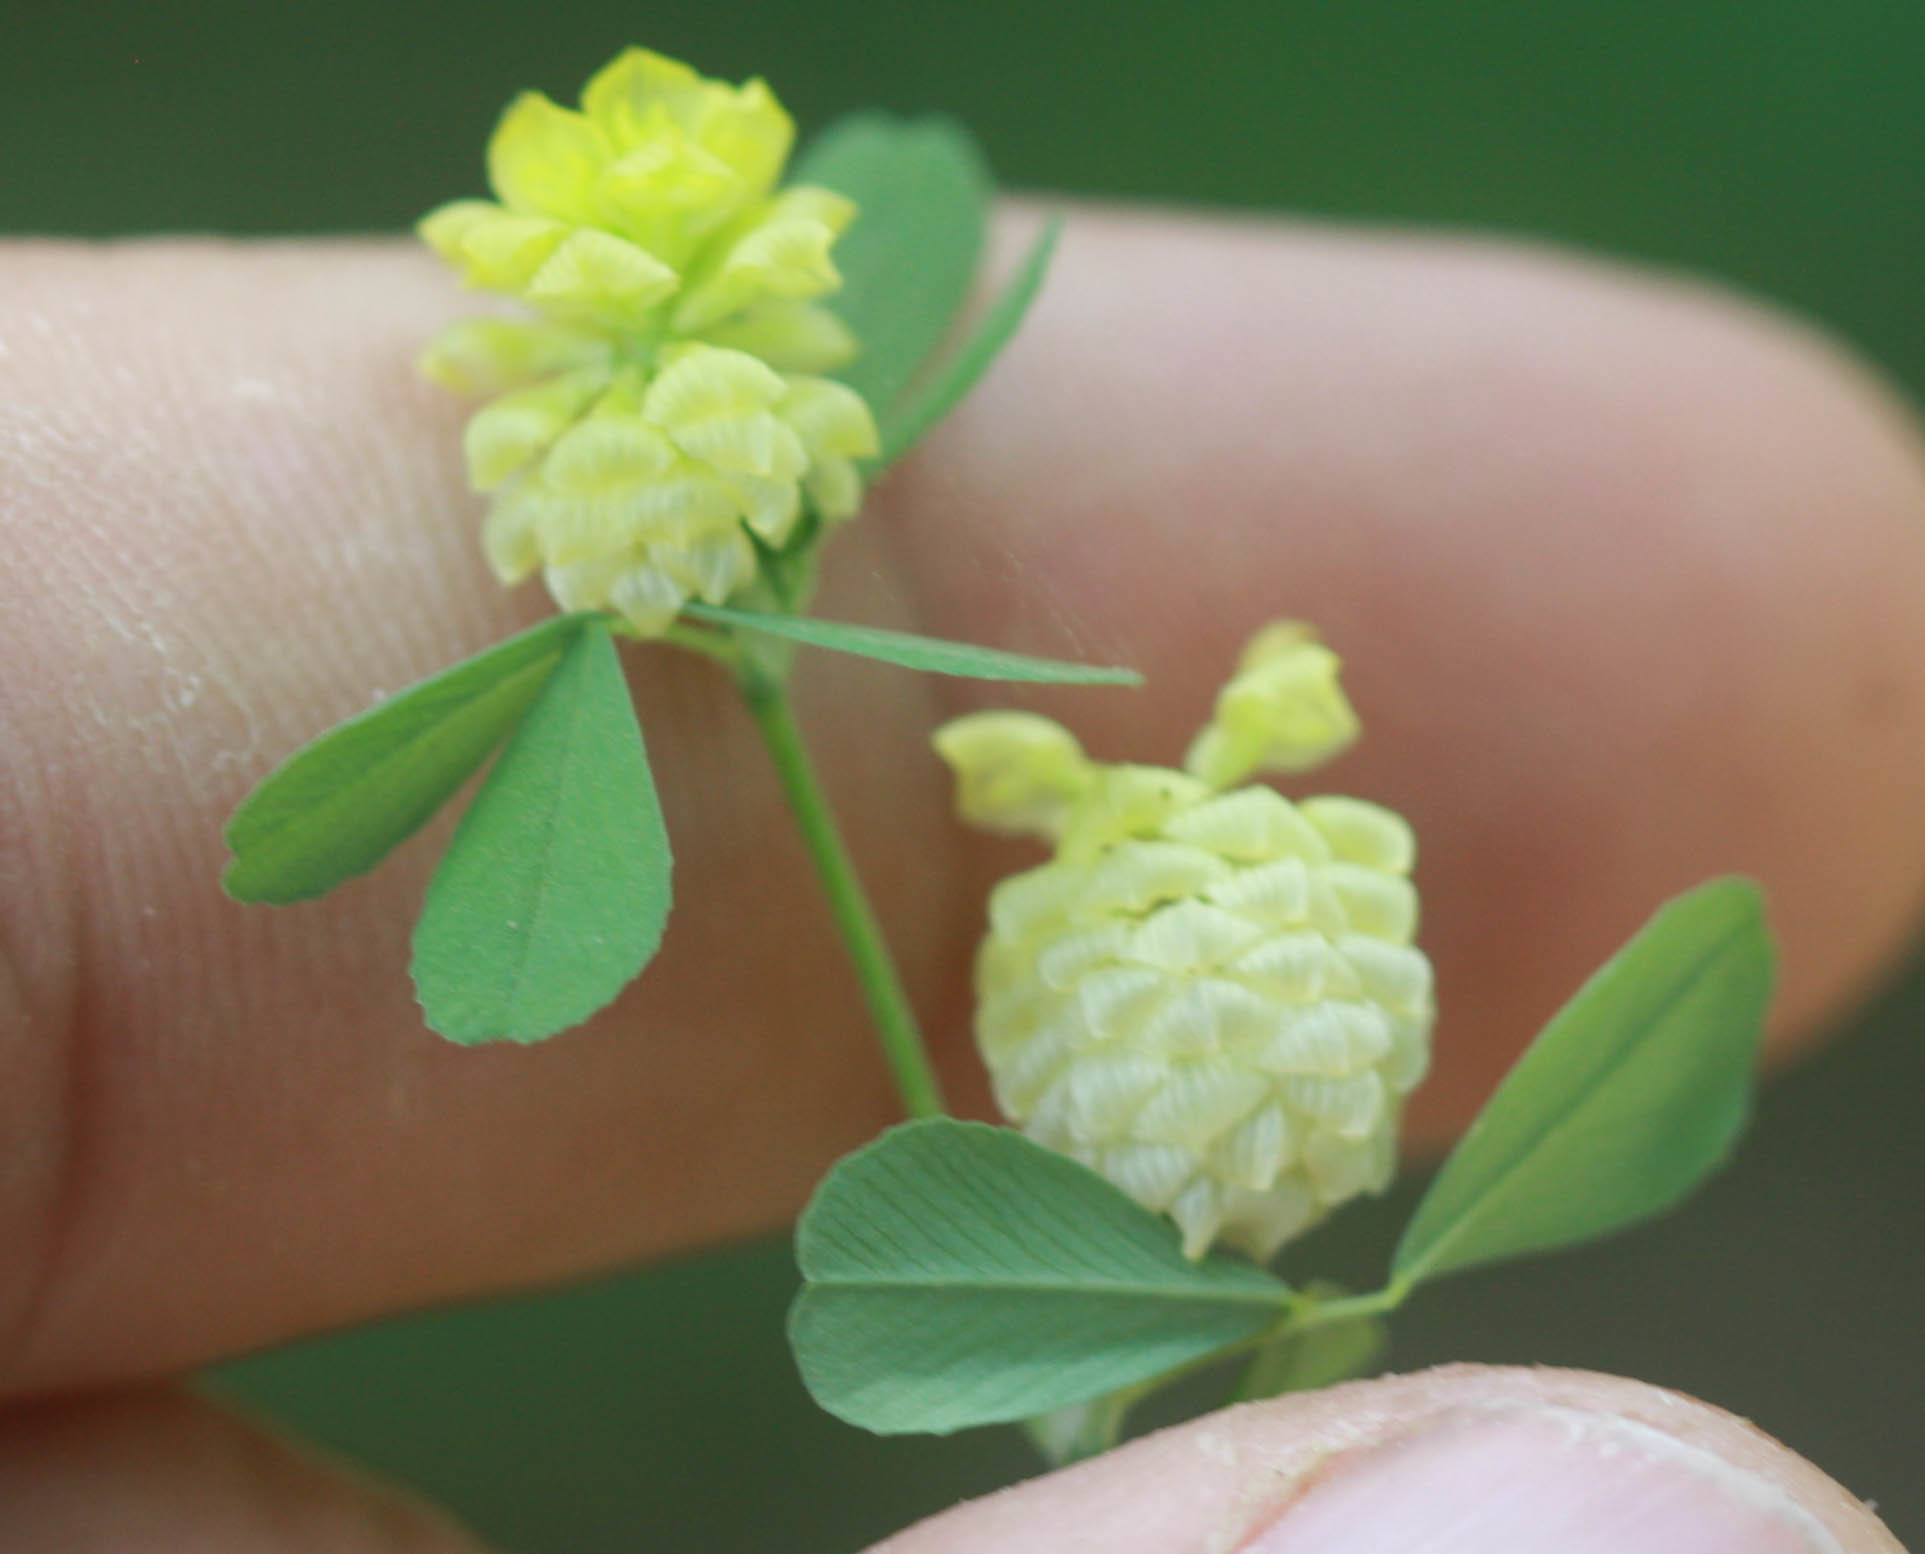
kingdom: Plantae
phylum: Tracheophyta
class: Magnoliopsida
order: Fabales
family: Fabaceae
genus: Trifolium
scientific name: Trifolium campestre
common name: Field clover
